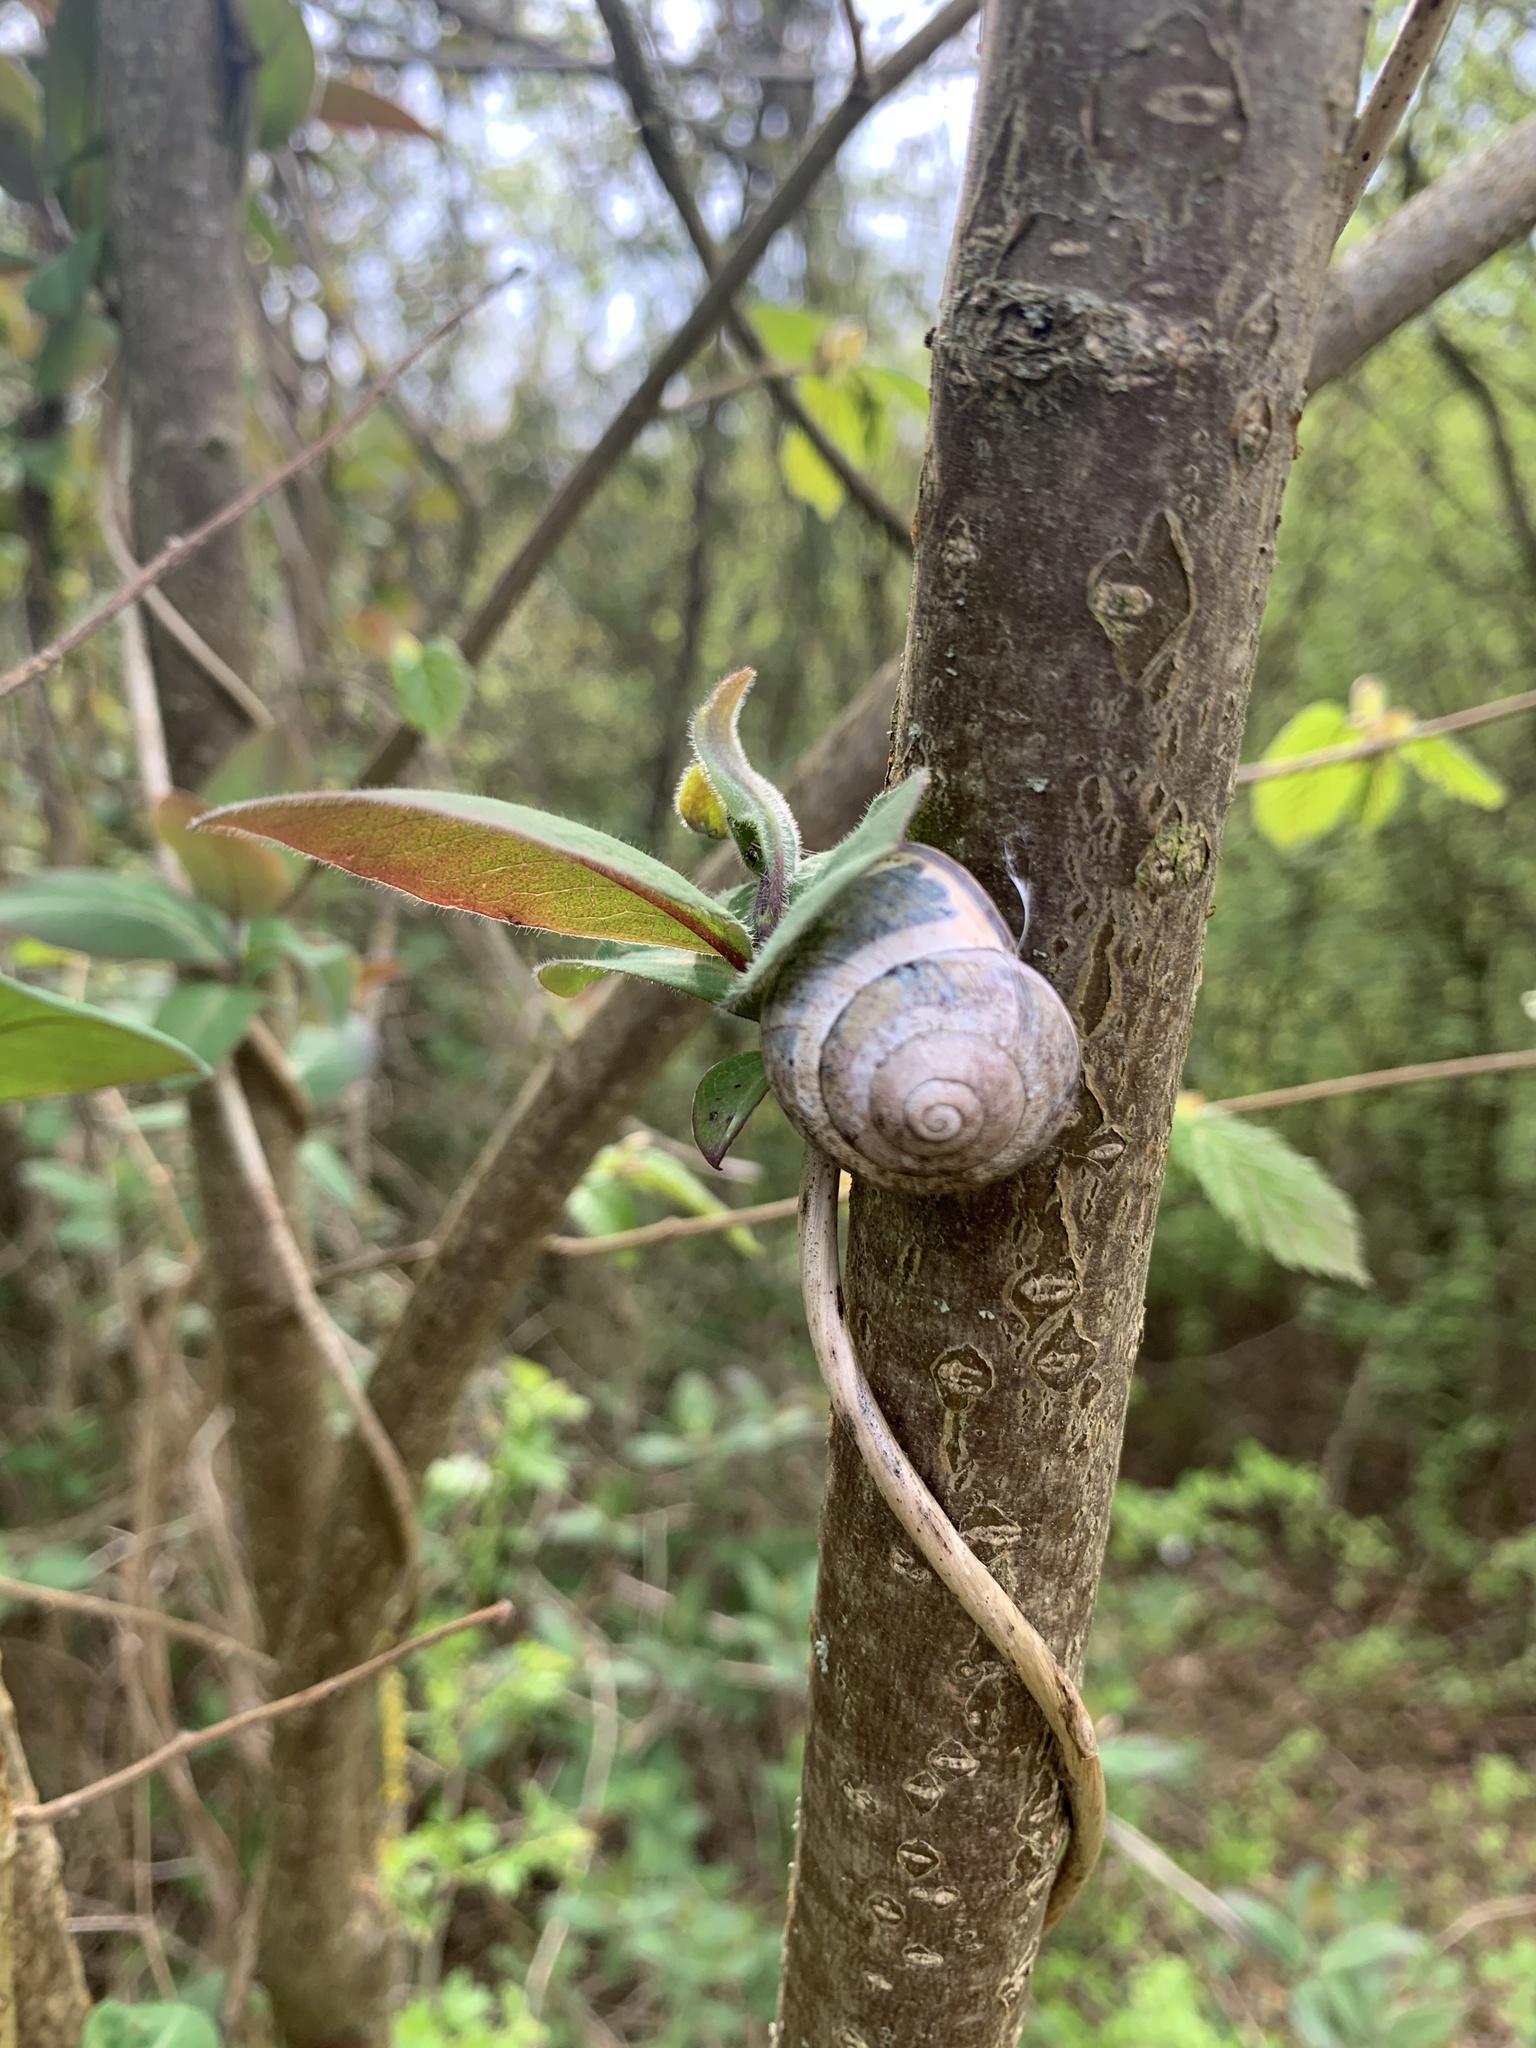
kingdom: Animalia
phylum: Mollusca
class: Gastropoda
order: Stylommatophora
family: Helicidae
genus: Cepaea
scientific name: Cepaea nemoralis
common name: Grovesnail
